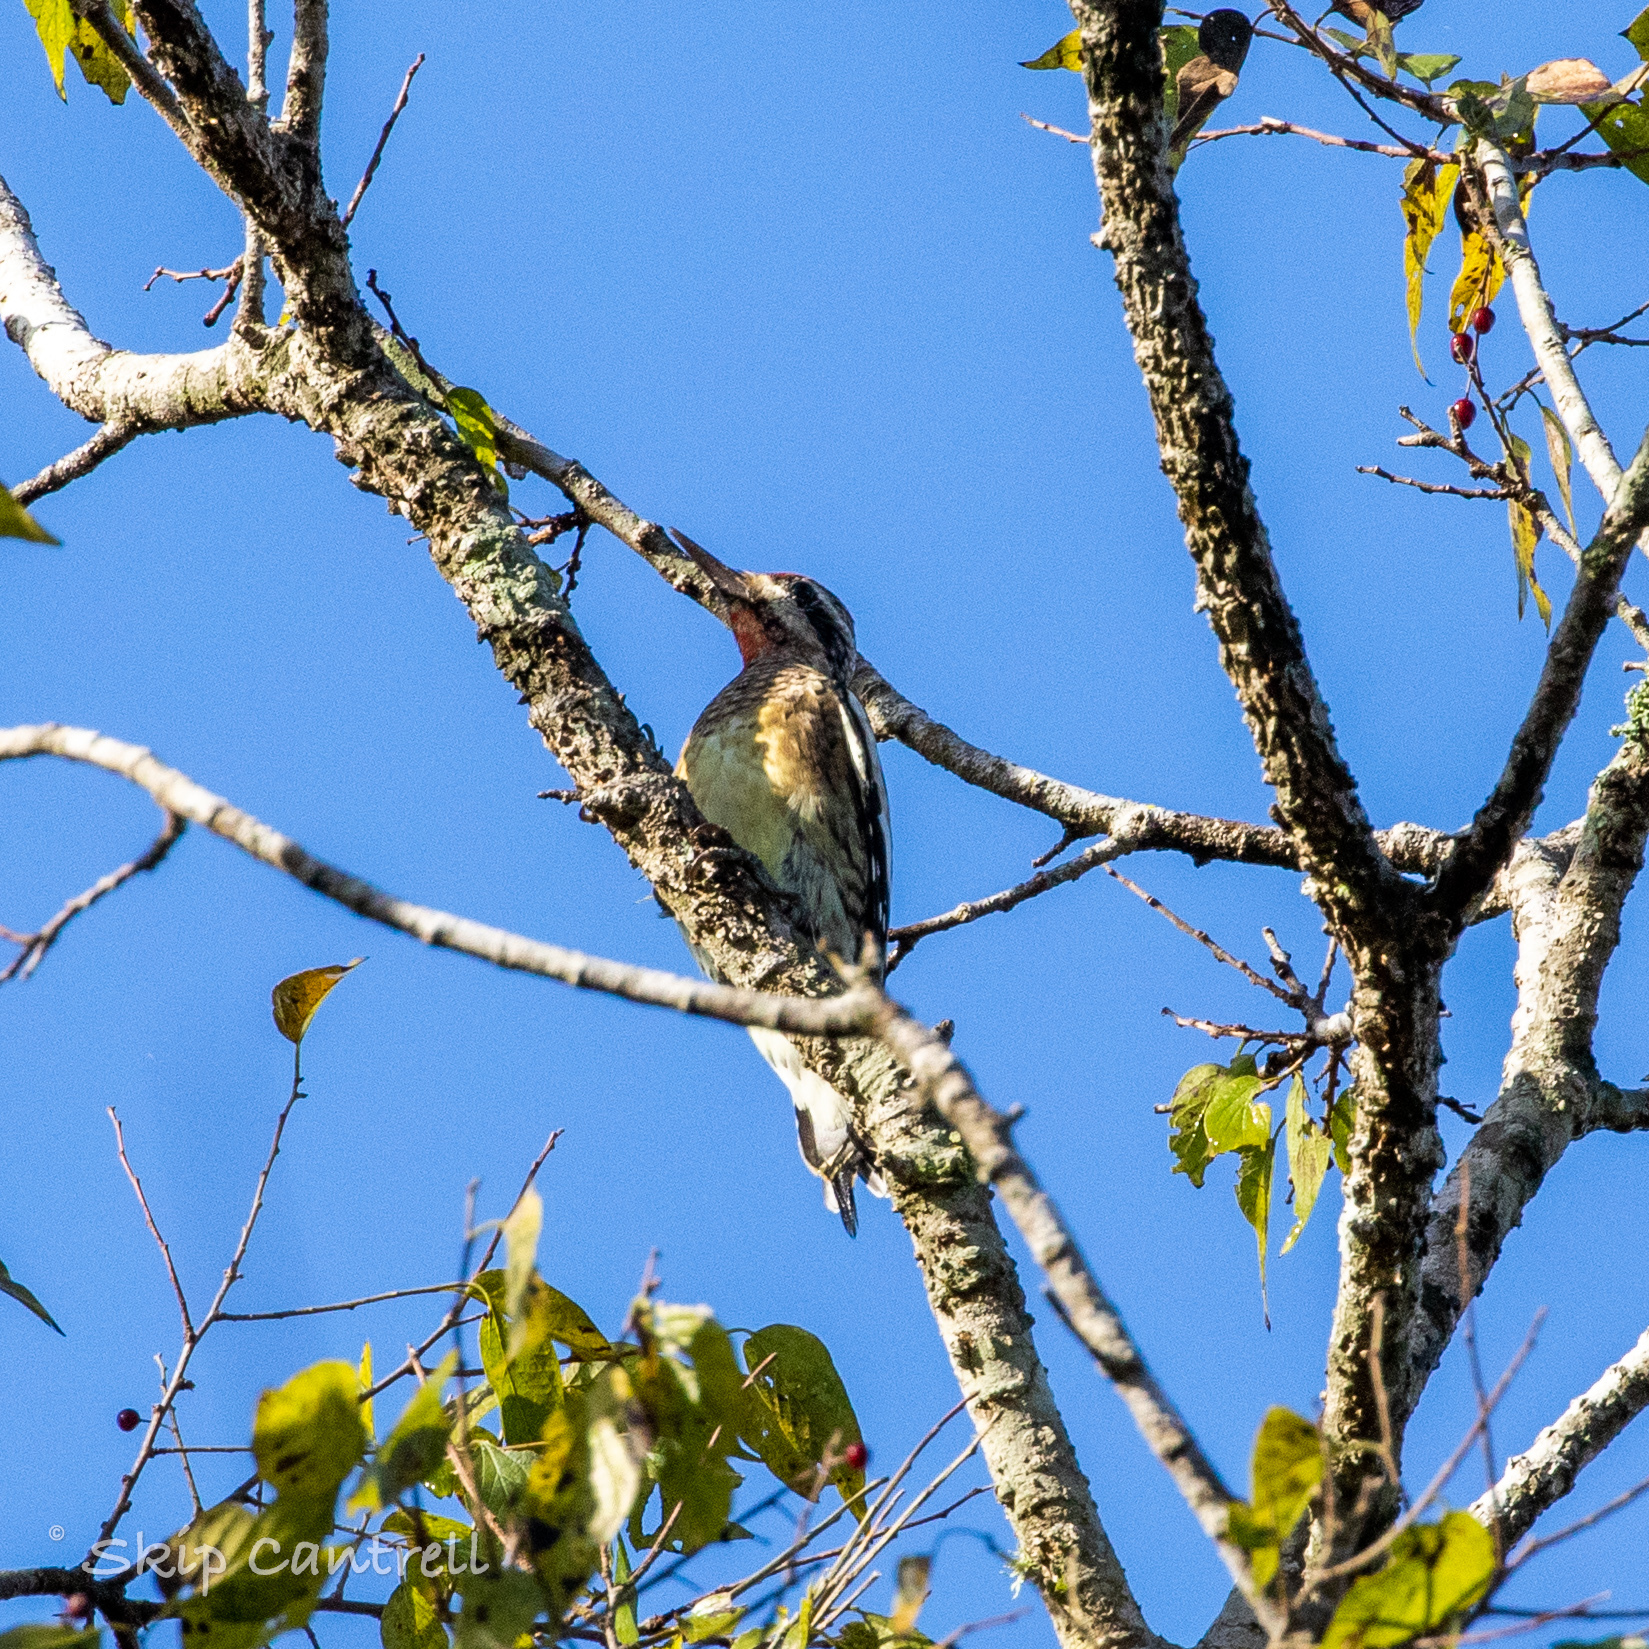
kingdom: Animalia
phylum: Chordata
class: Aves
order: Piciformes
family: Picidae
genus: Sphyrapicus
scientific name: Sphyrapicus varius
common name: Yellow-bellied sapsucker
